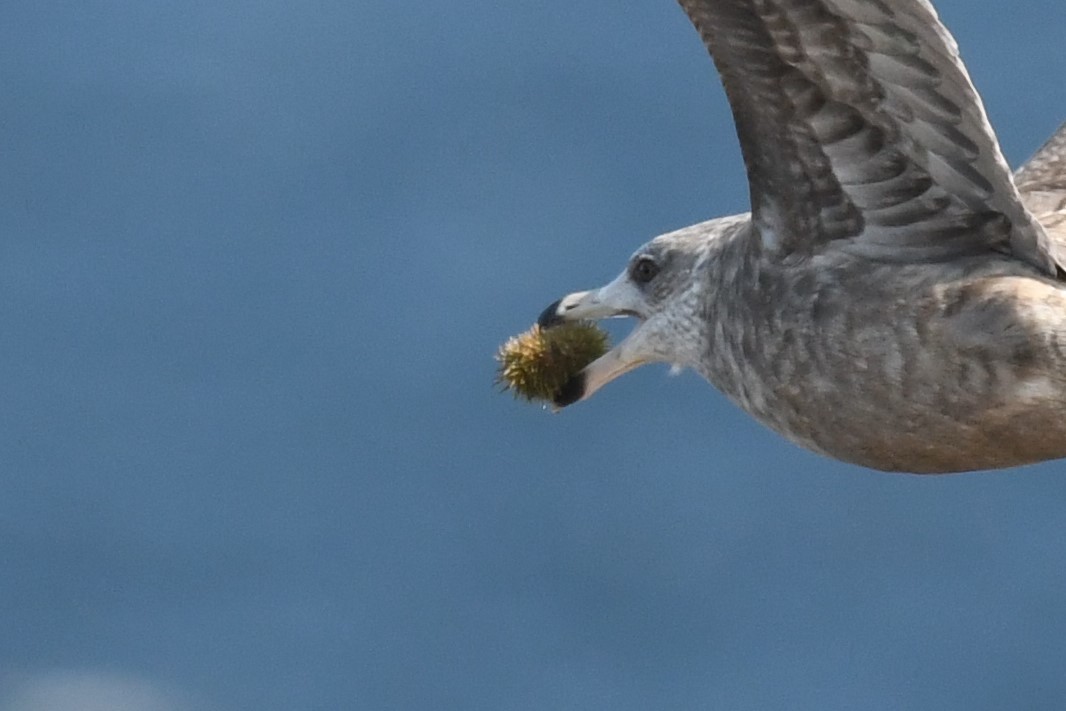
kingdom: Animalia
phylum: Echinodermata
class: Echinoidea
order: Camarodonta
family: Strongylocentrotidae
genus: Strongylocentrotus
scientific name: Strongylocentrotus droebachiensis
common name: Northern sea urchin
